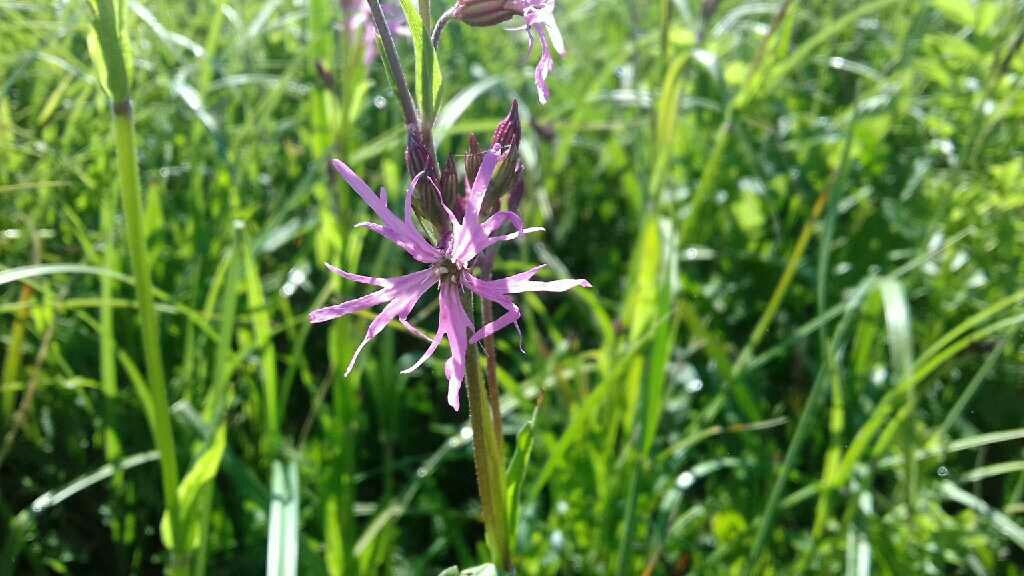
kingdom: Plantae
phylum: Tracheophyta
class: Magnoliopsida
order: Caryophyllales
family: Caryophyllaceae
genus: Silene
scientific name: Silene flos-cuculi
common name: Ragged-robin
